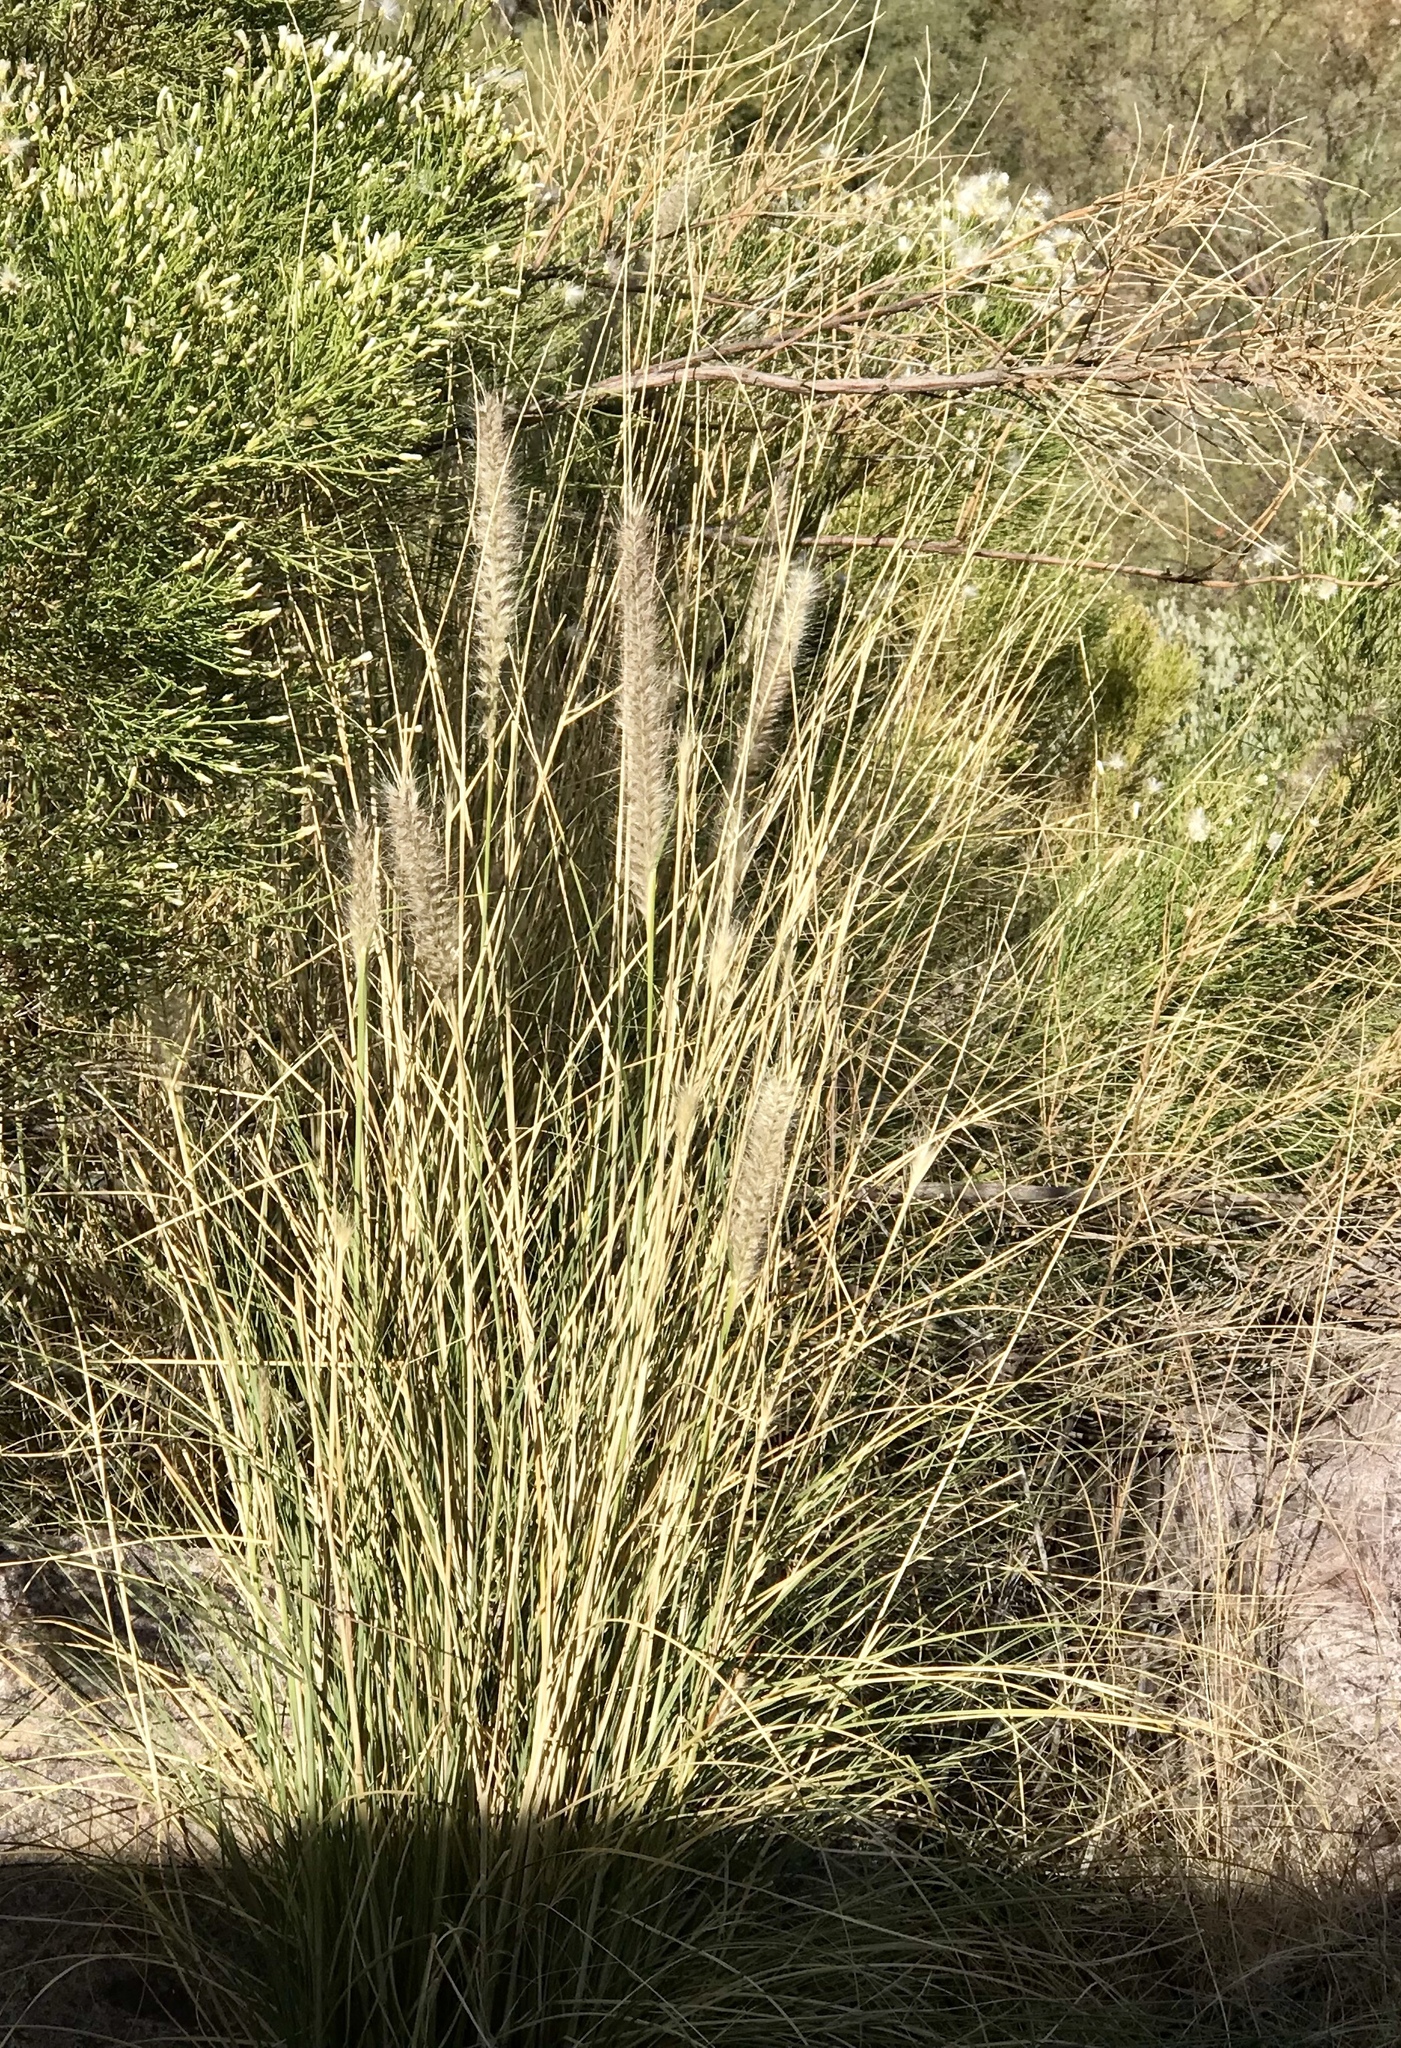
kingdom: Plantae
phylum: Tracheophyta
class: Liliopsida
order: Poales
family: Poaceae
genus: Cenchrus
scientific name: Cenchrus ciliaris
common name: Buffelgrass
